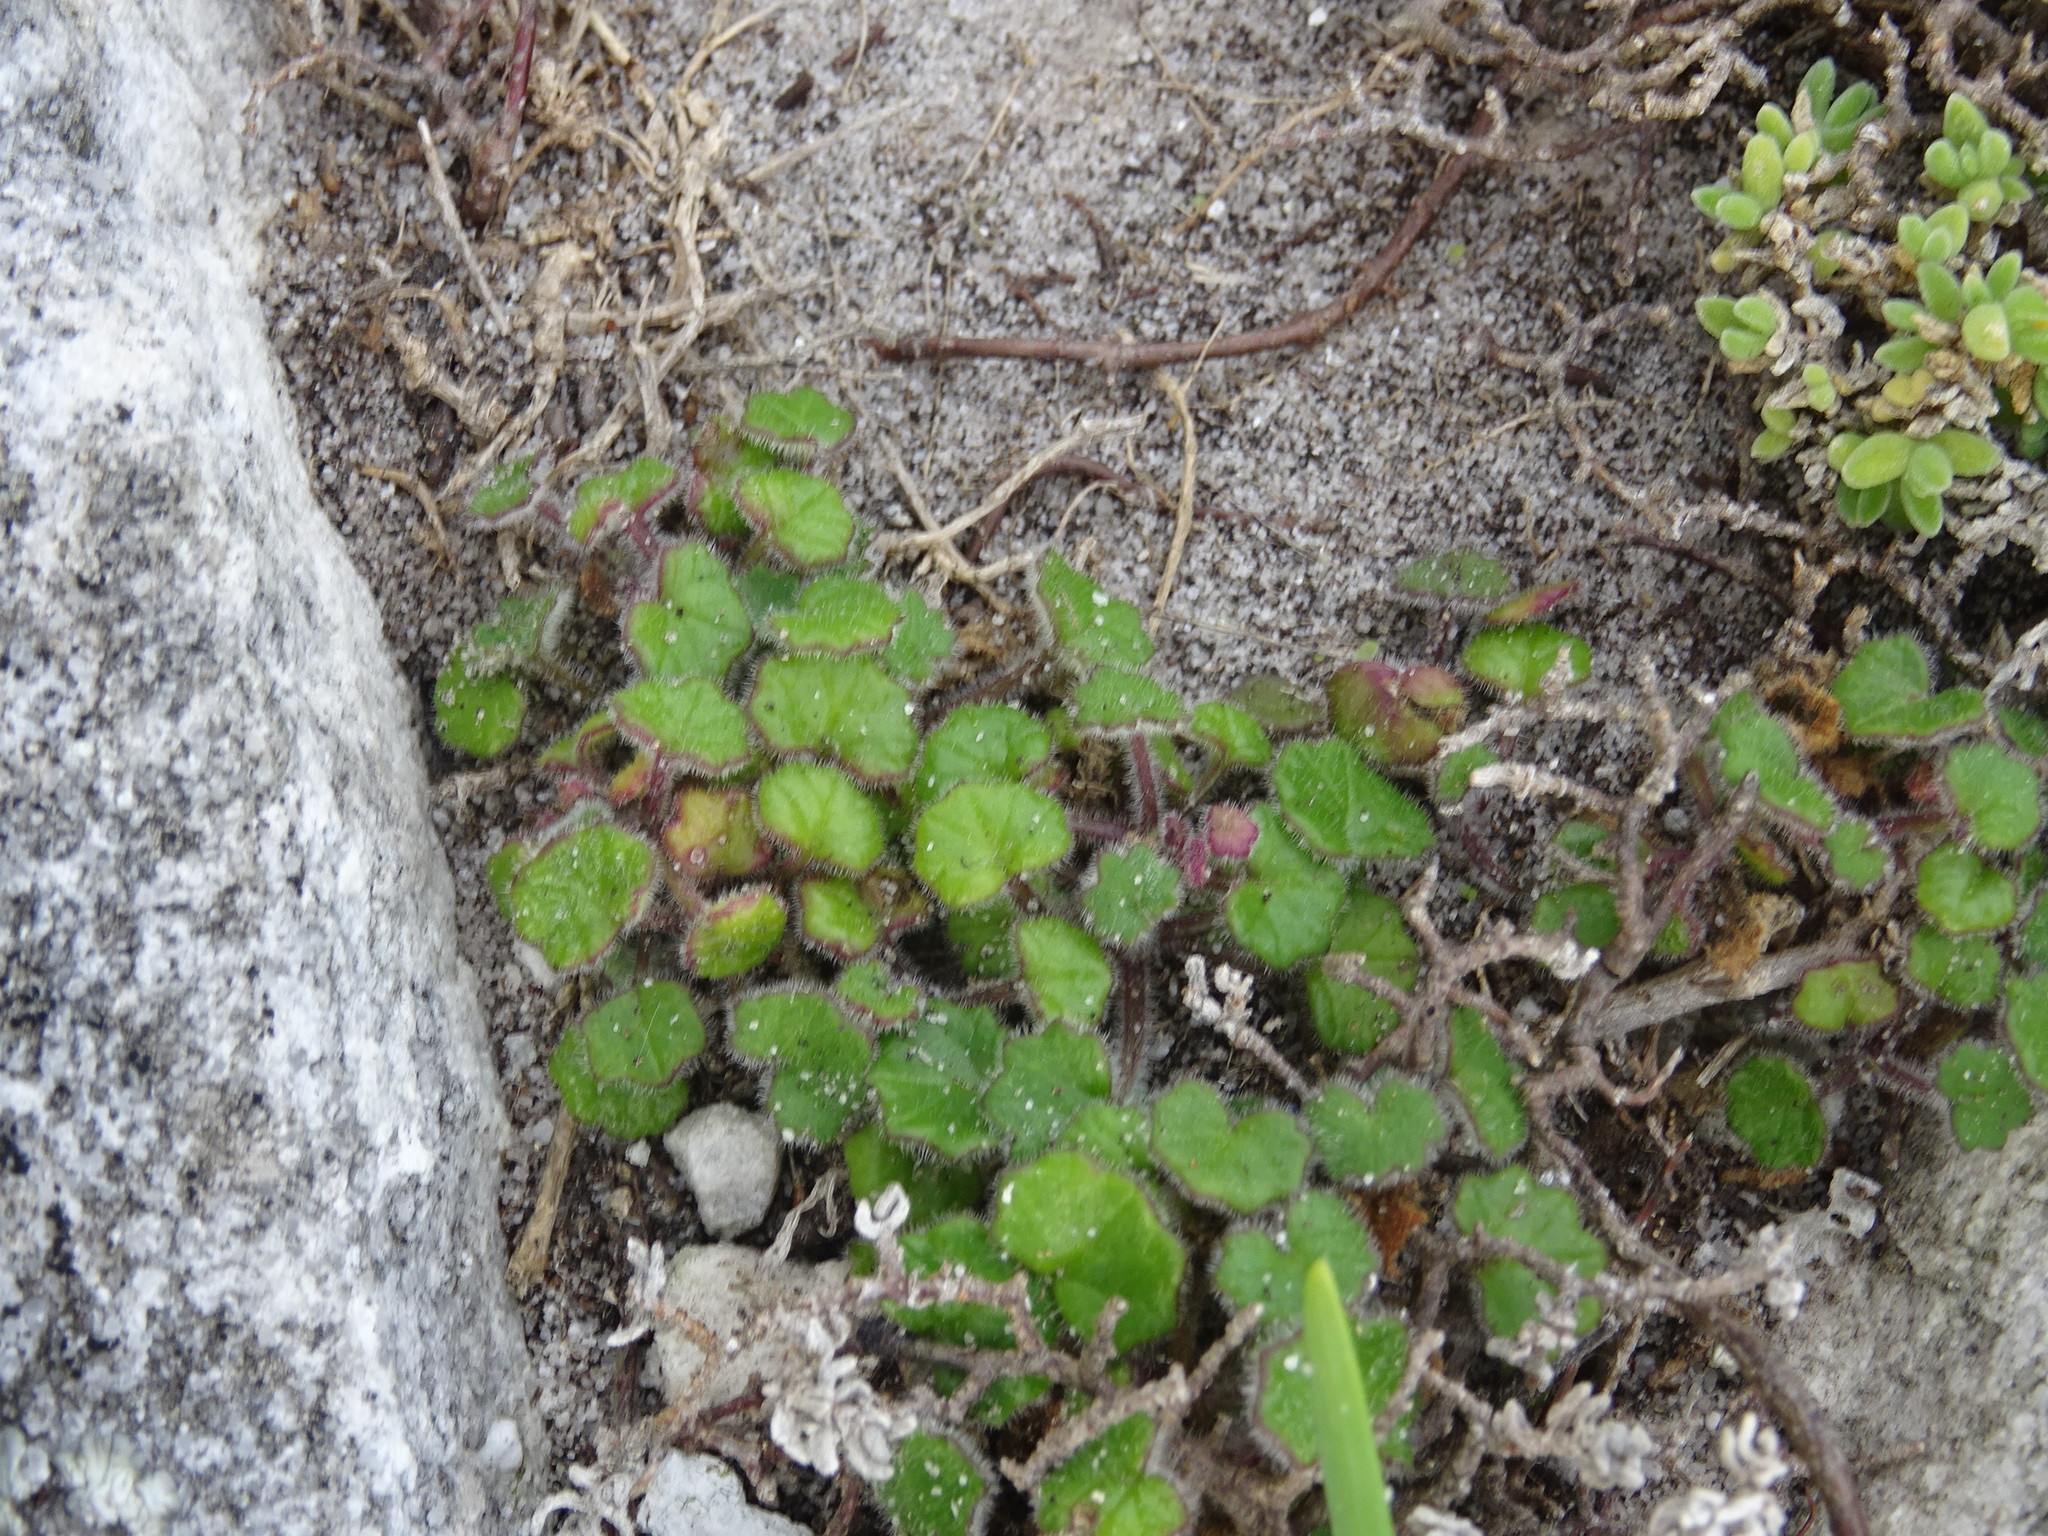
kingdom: Plantae
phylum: Tracheophyta
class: Magnoliopsida
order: Asterales
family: Asteraceae
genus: Cineraria
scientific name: Cineraria geifolia
